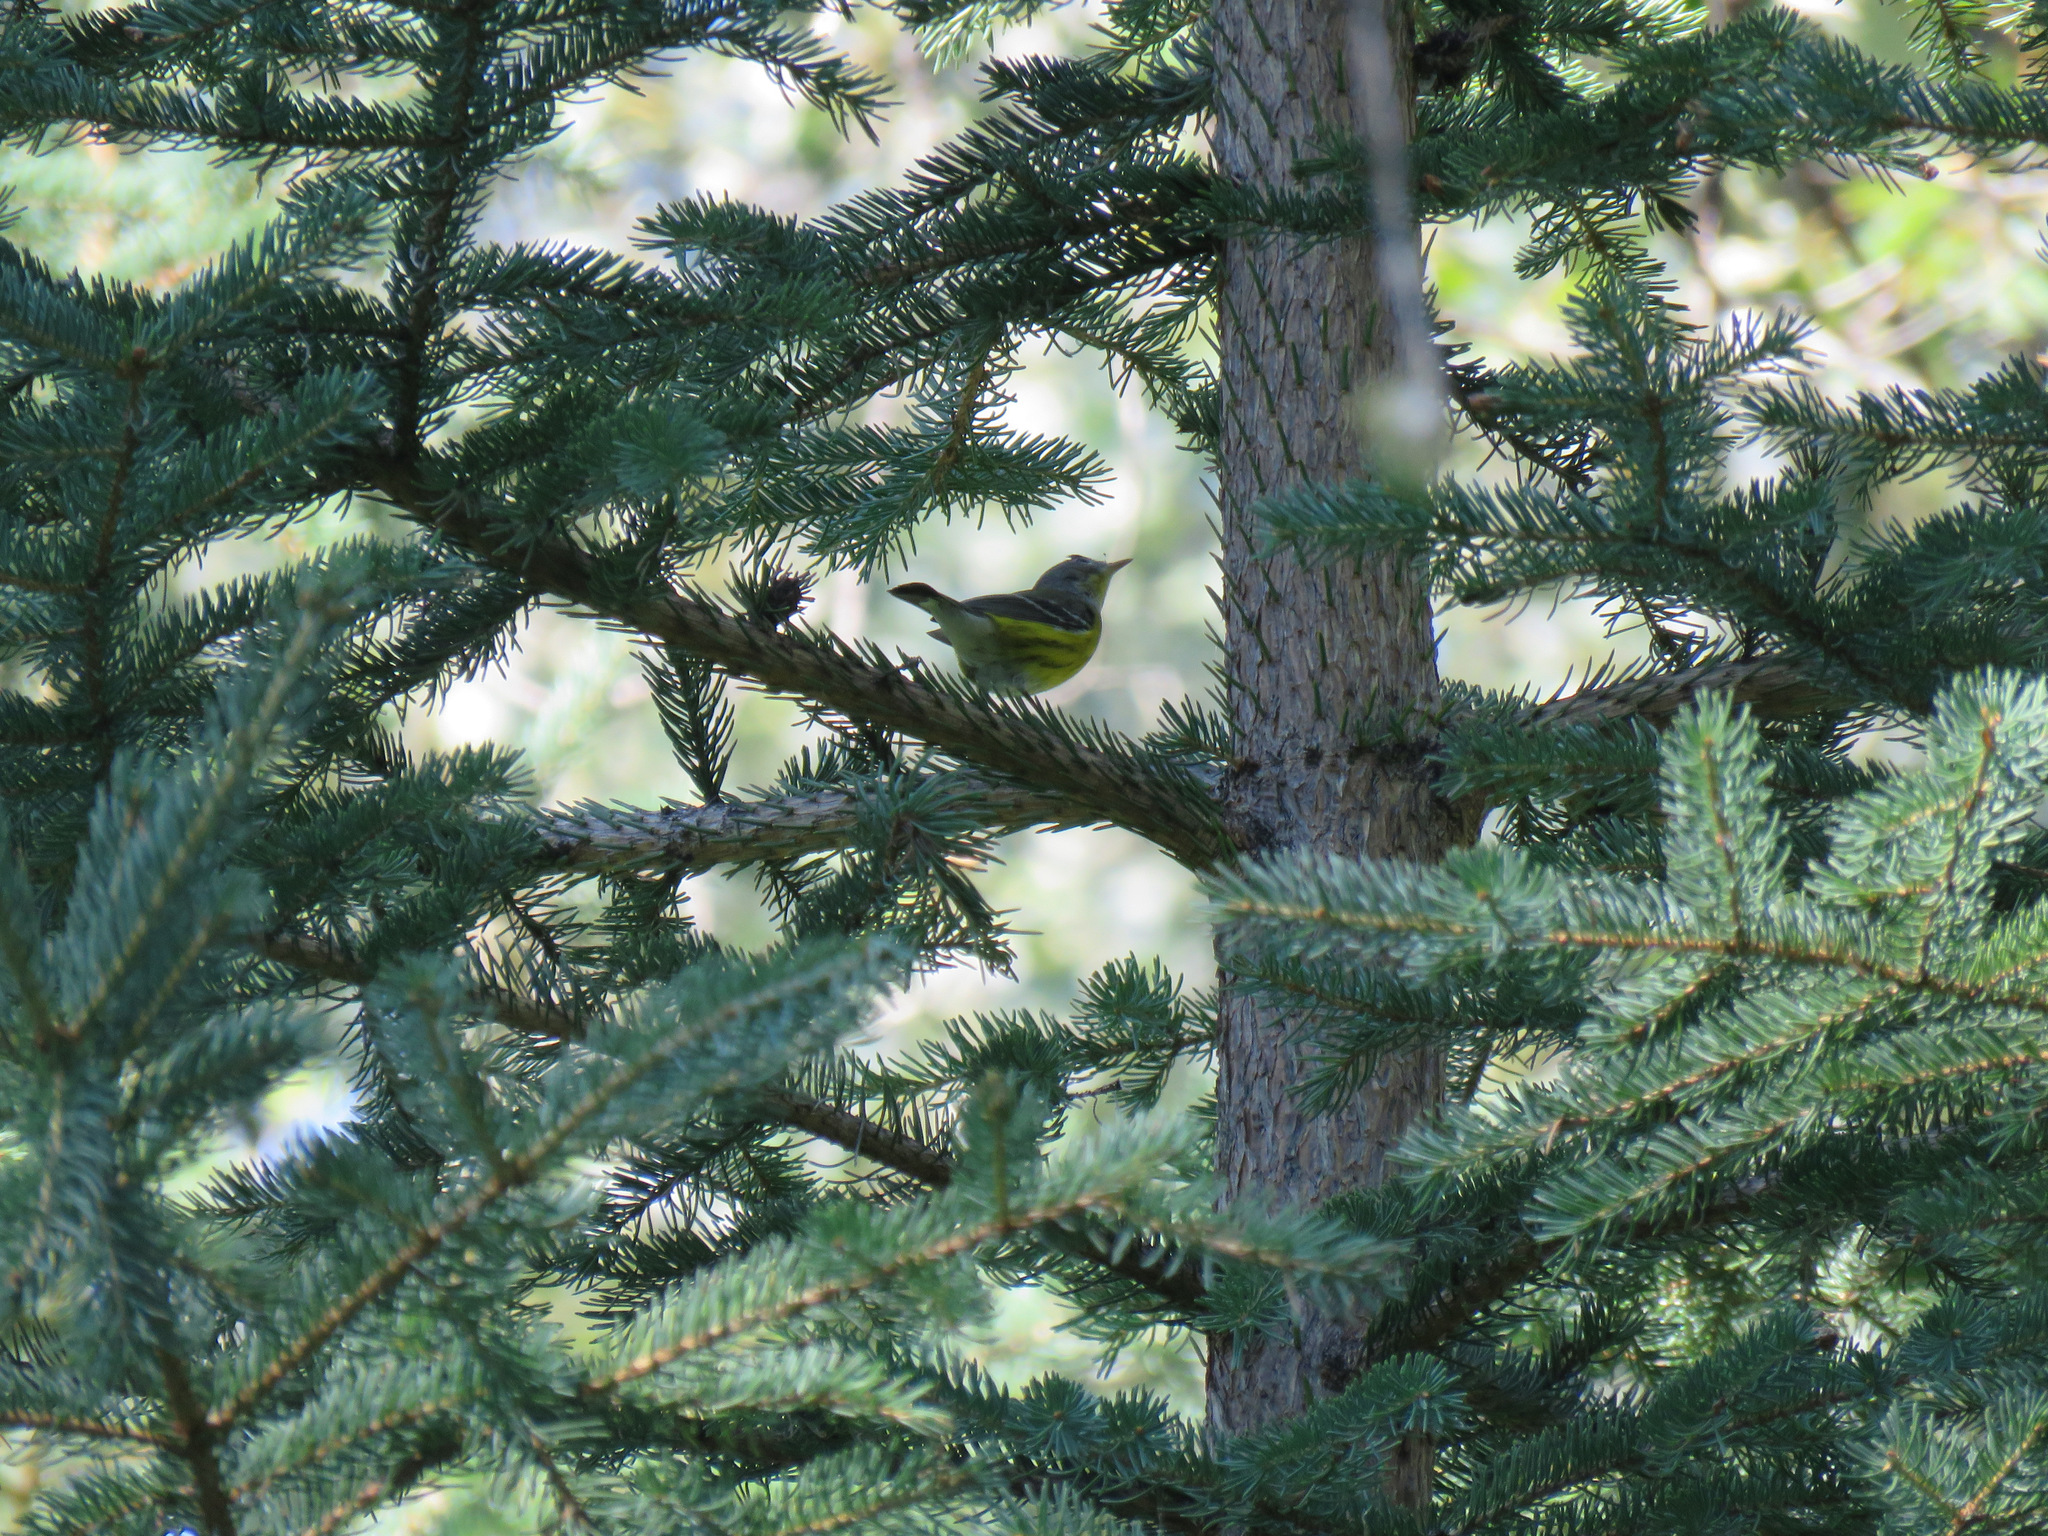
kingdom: Animalia
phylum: Chordata
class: Aves
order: Passeriformes
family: Parulidae
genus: Setophaga
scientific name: Setophaga magnolia
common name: Magnolia warbler
